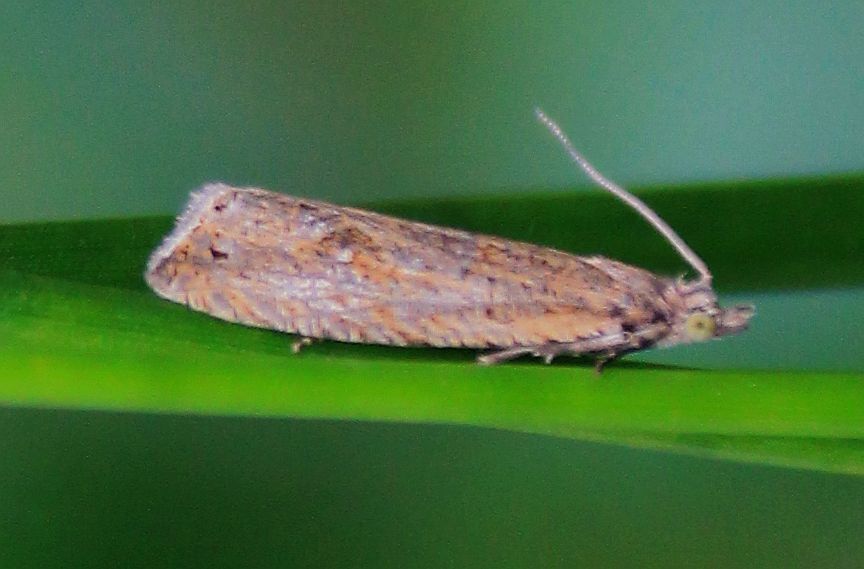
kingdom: Animalia
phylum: Arthropoda
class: Insecta
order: Lepidoptera
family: Tortricidae
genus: Bactra
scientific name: Bactra lancealana
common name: Rush marble
